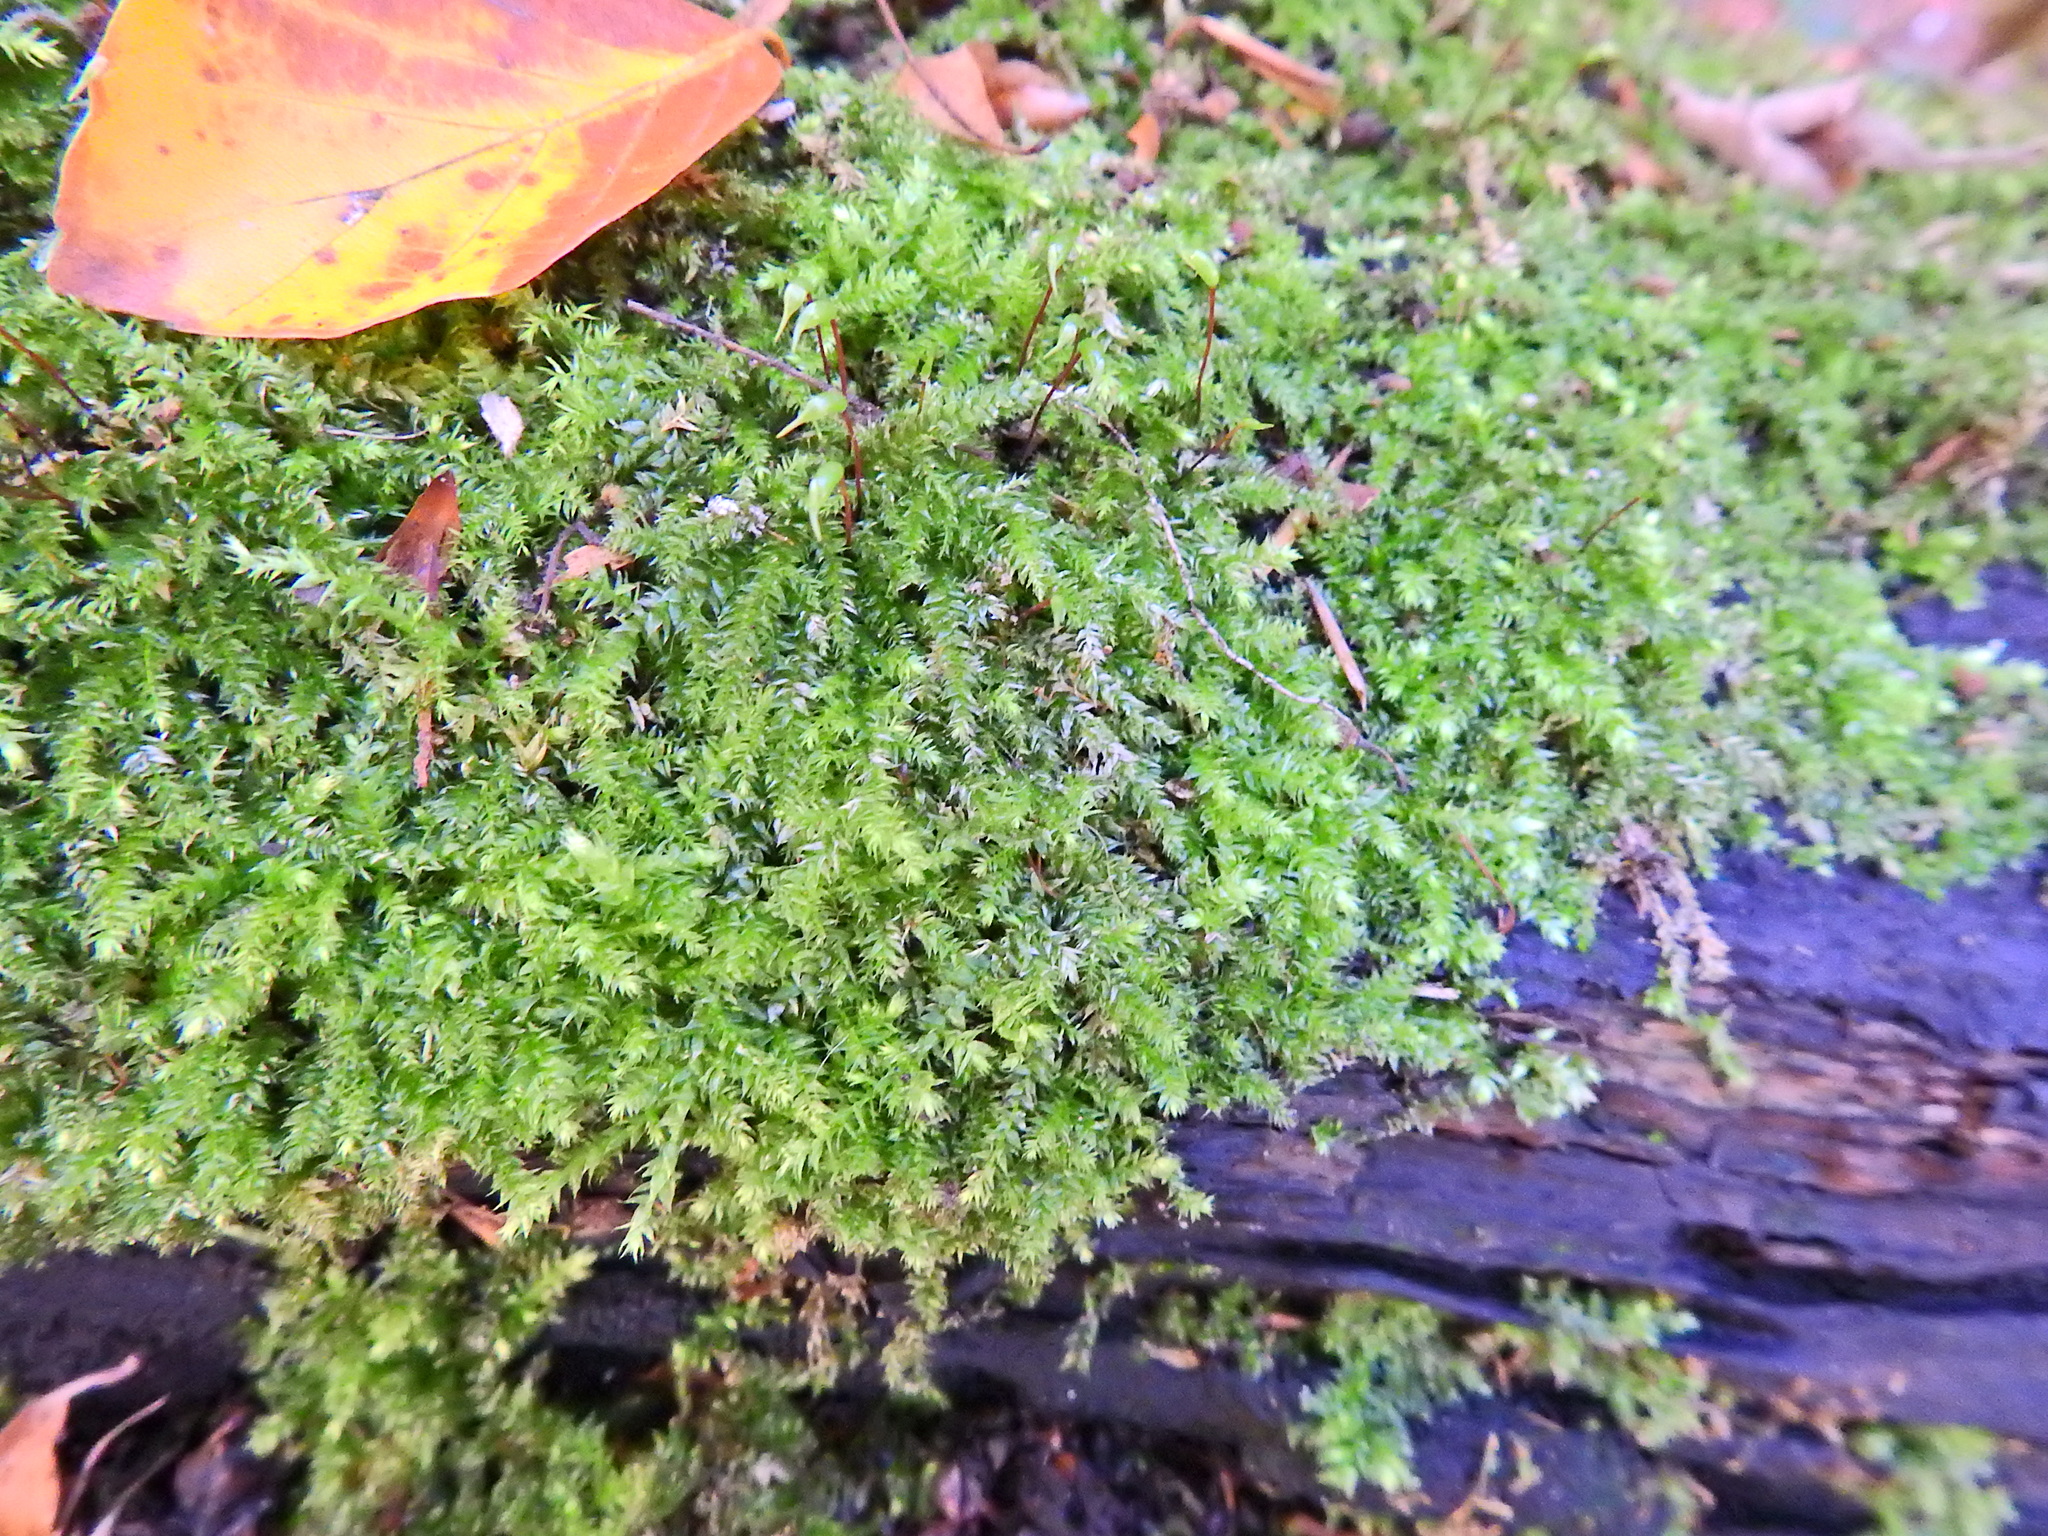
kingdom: Plantae
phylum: Bryophyta
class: Bryopsida
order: Hypnales
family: Brachytheciaceae
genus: Rhynchostegium
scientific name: Rhynchostegium confertum
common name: Clustered feather-moss
